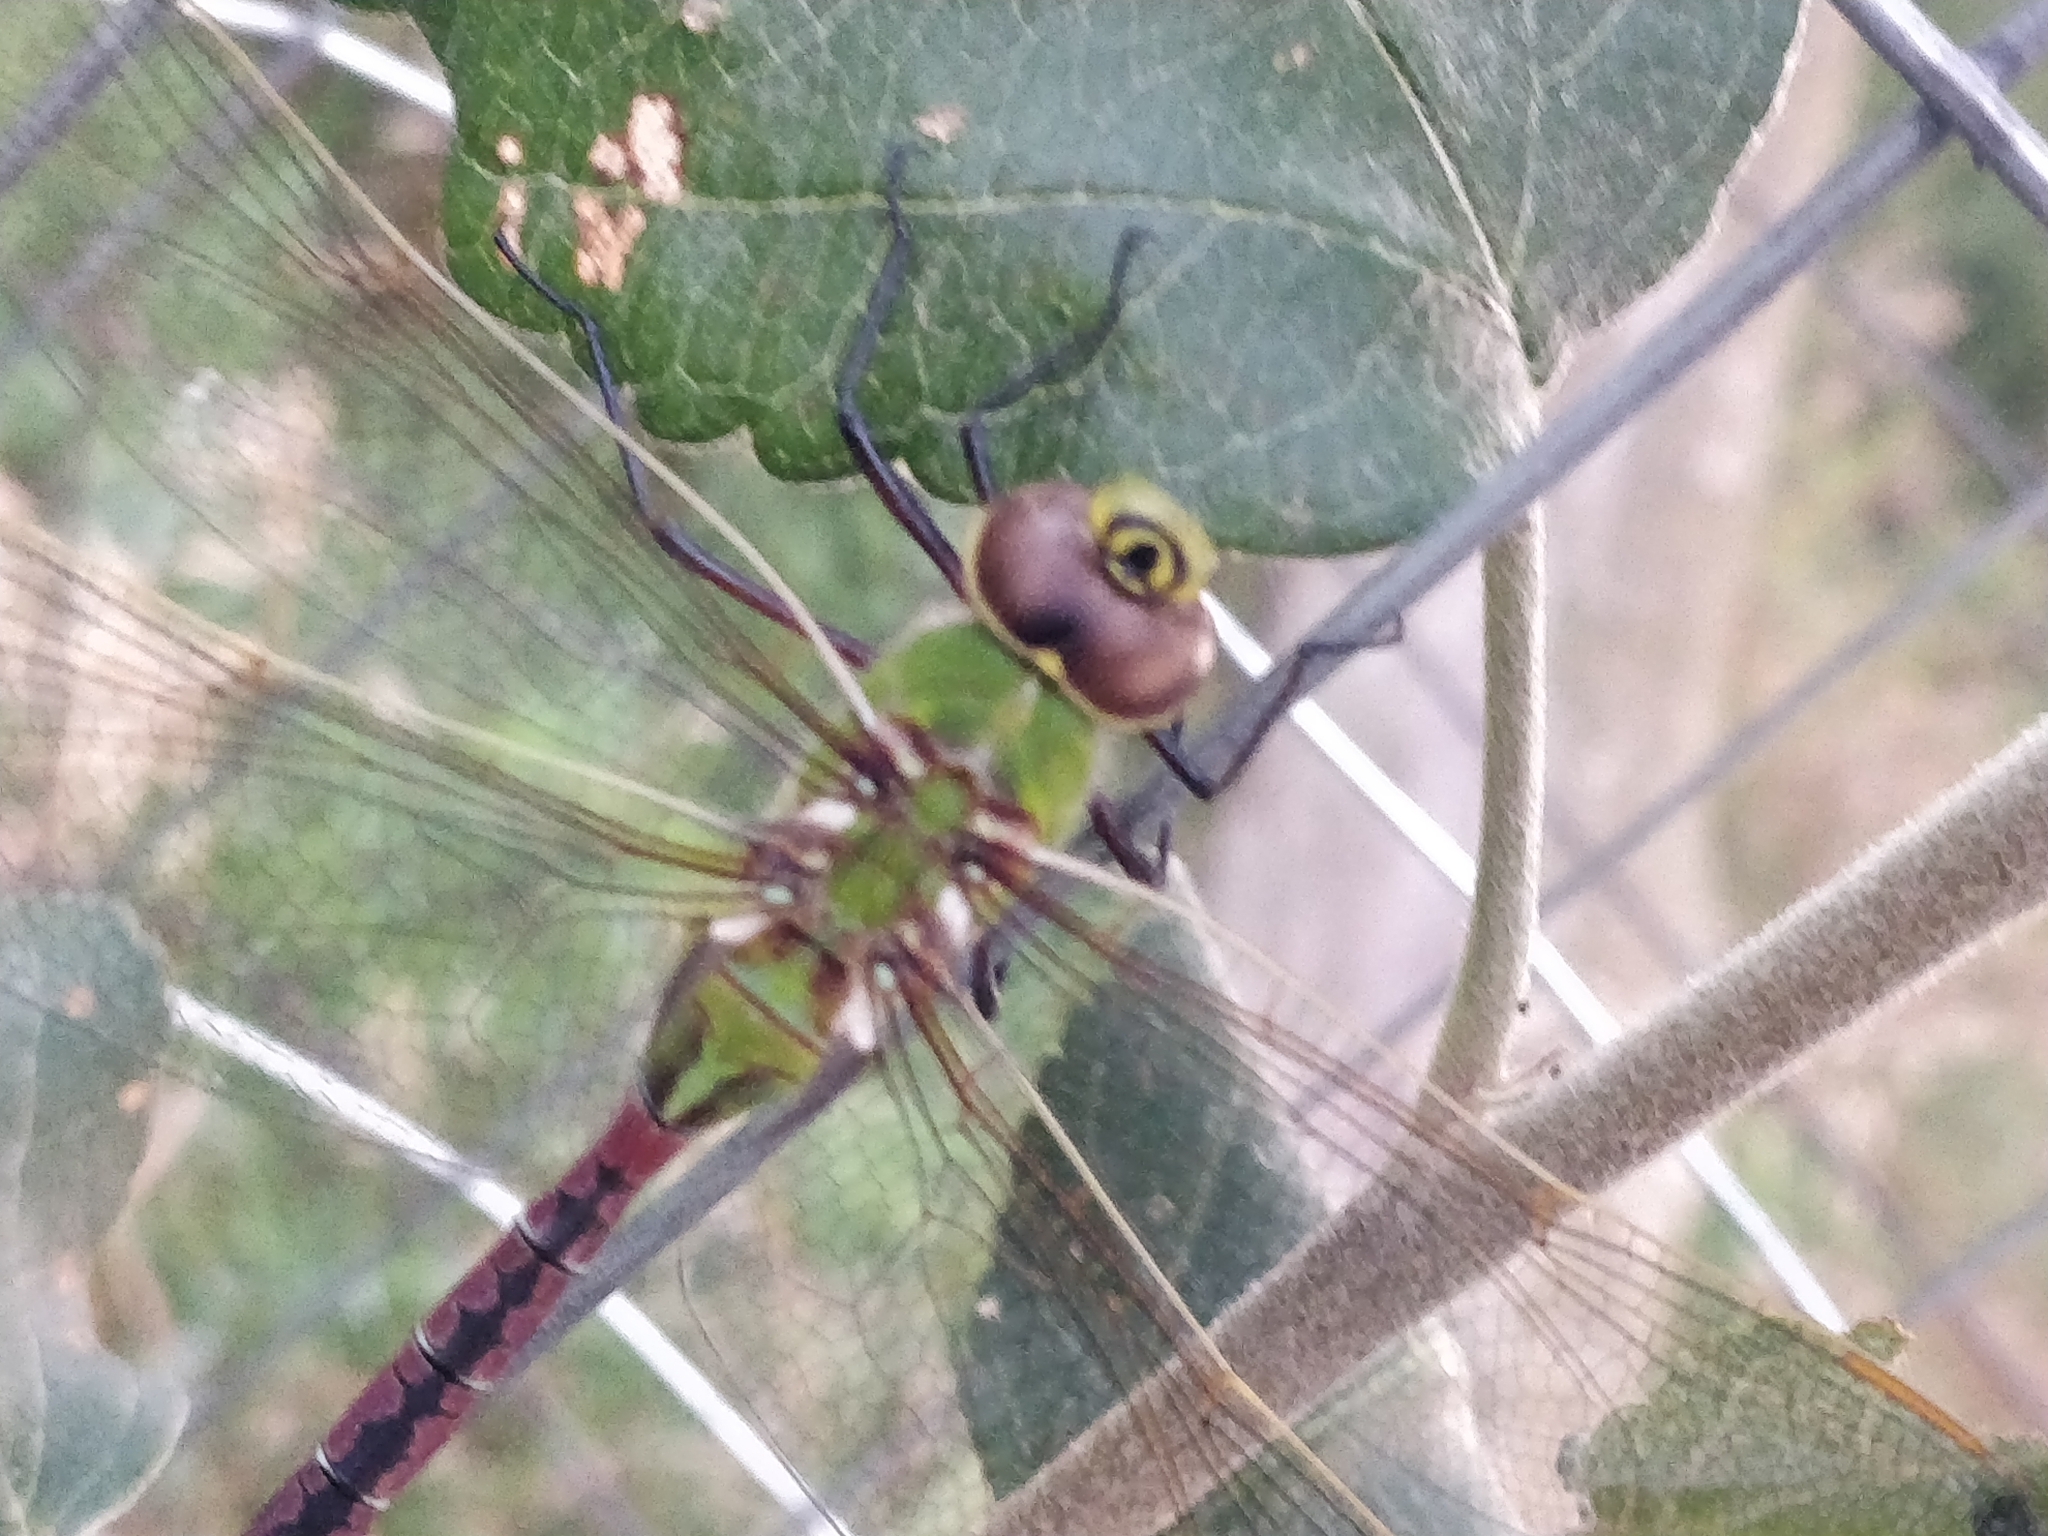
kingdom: Animalia
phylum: Arthropoda
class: Insecta
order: Odonata
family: Aeshnidae
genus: Anax
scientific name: Anax junius
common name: Common green darner
